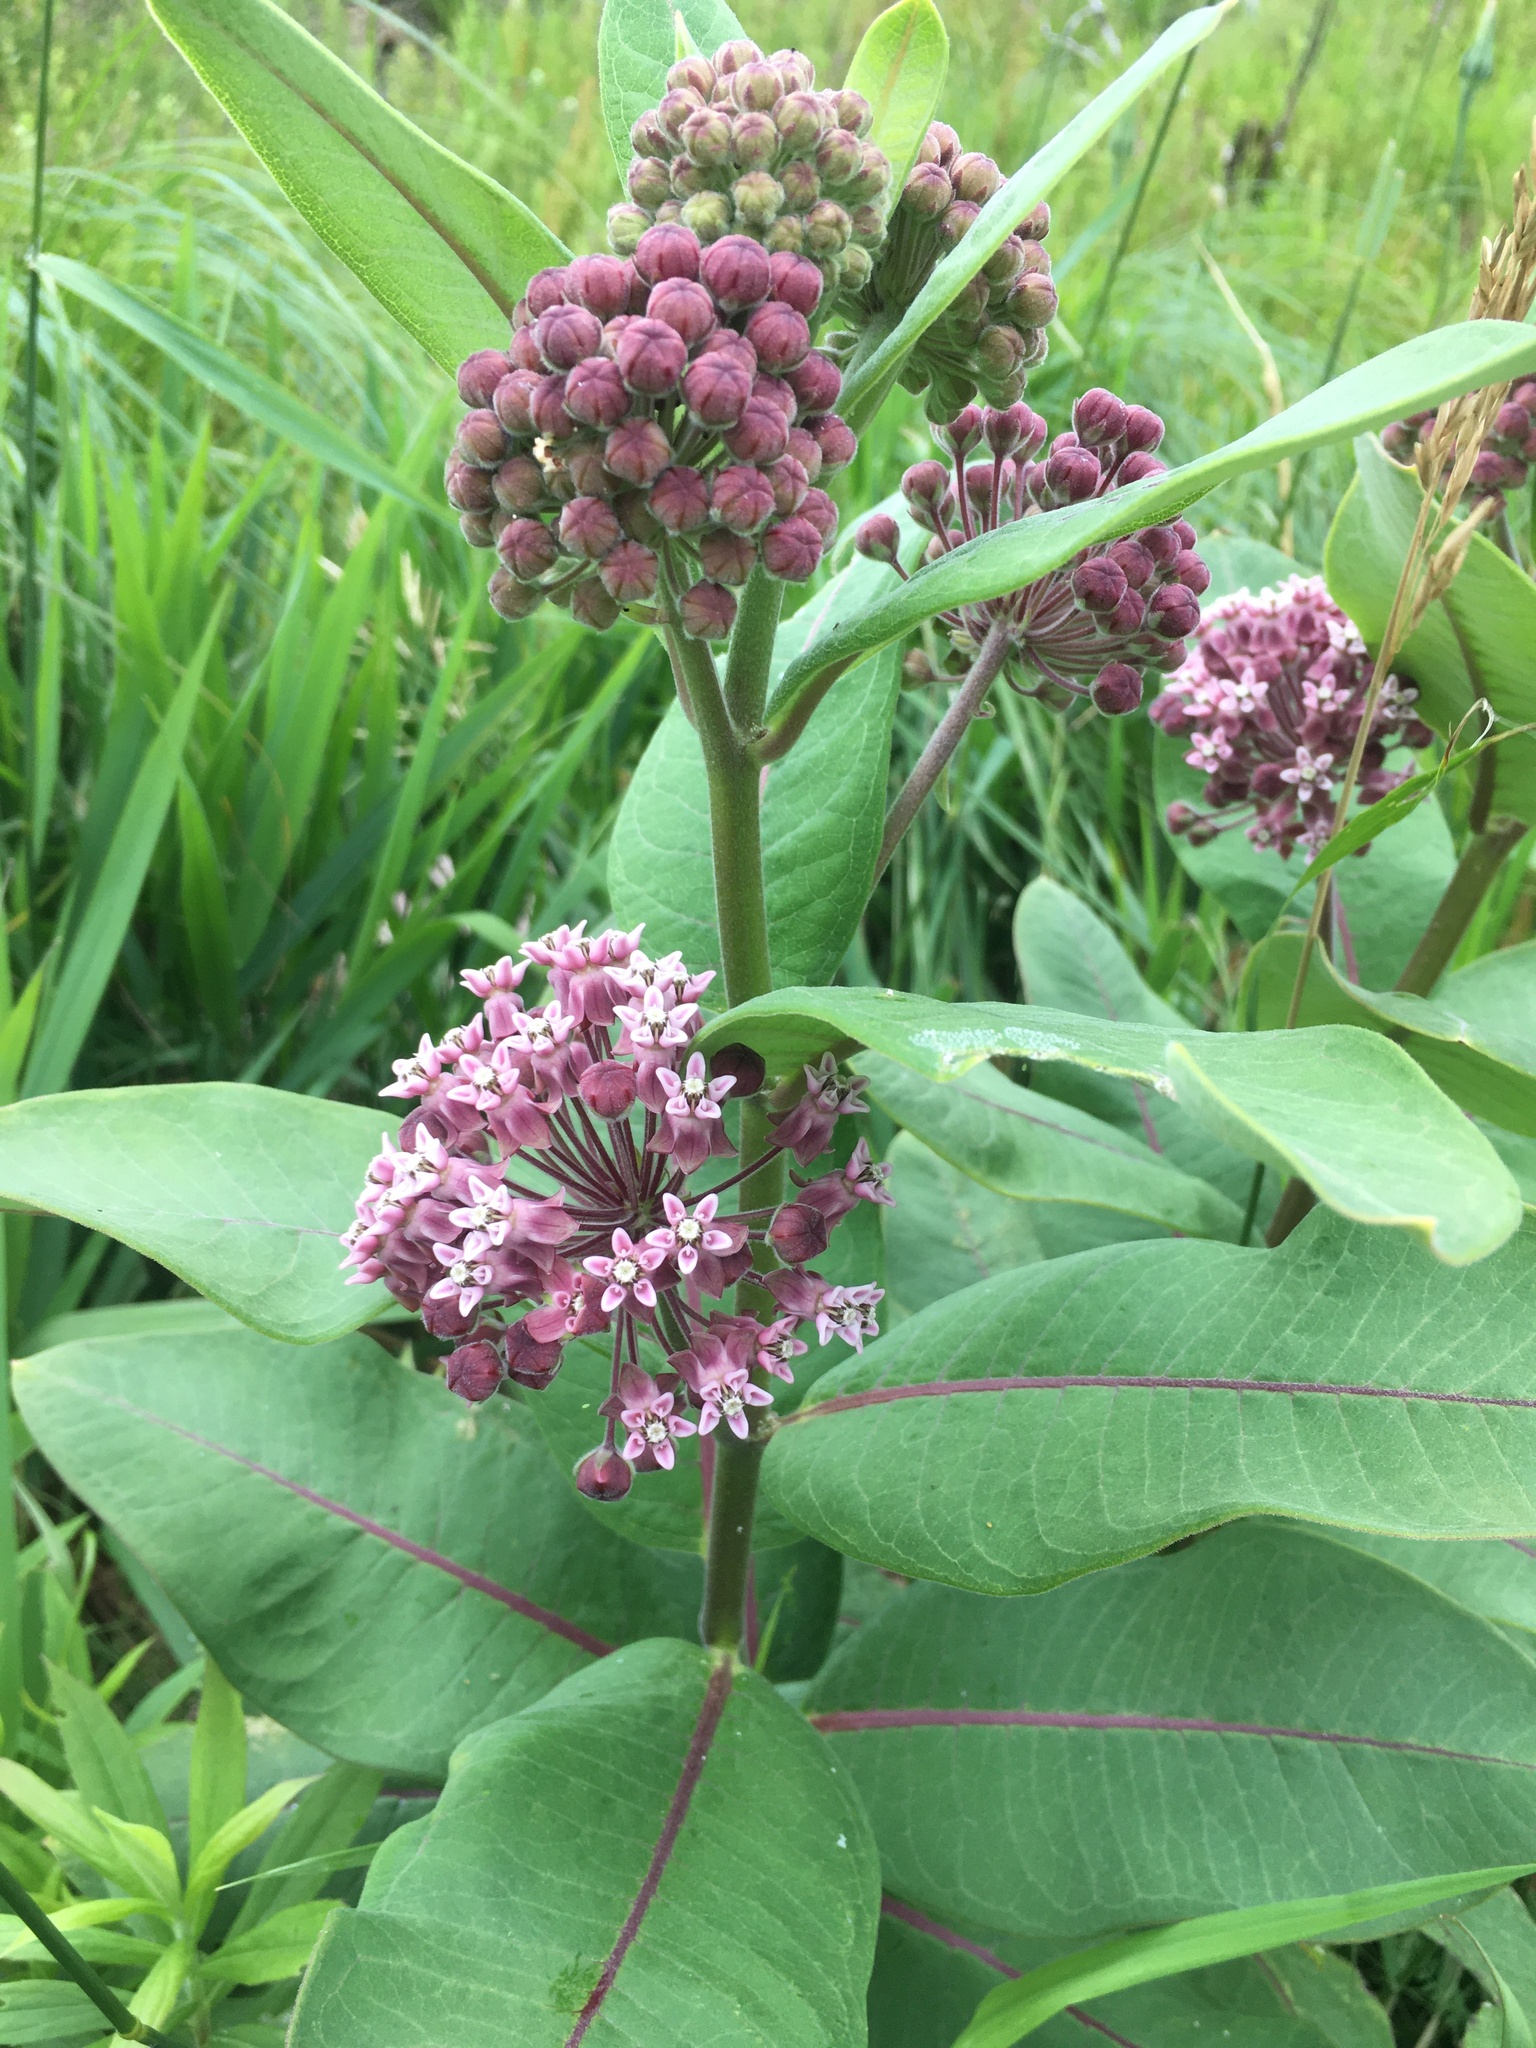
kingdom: Plantae
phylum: Tracheophyta
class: Magnoliopsida
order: Gentianales
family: Apocynaceae
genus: Asclepias
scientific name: Asclepias syriaca
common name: Common milkweed
